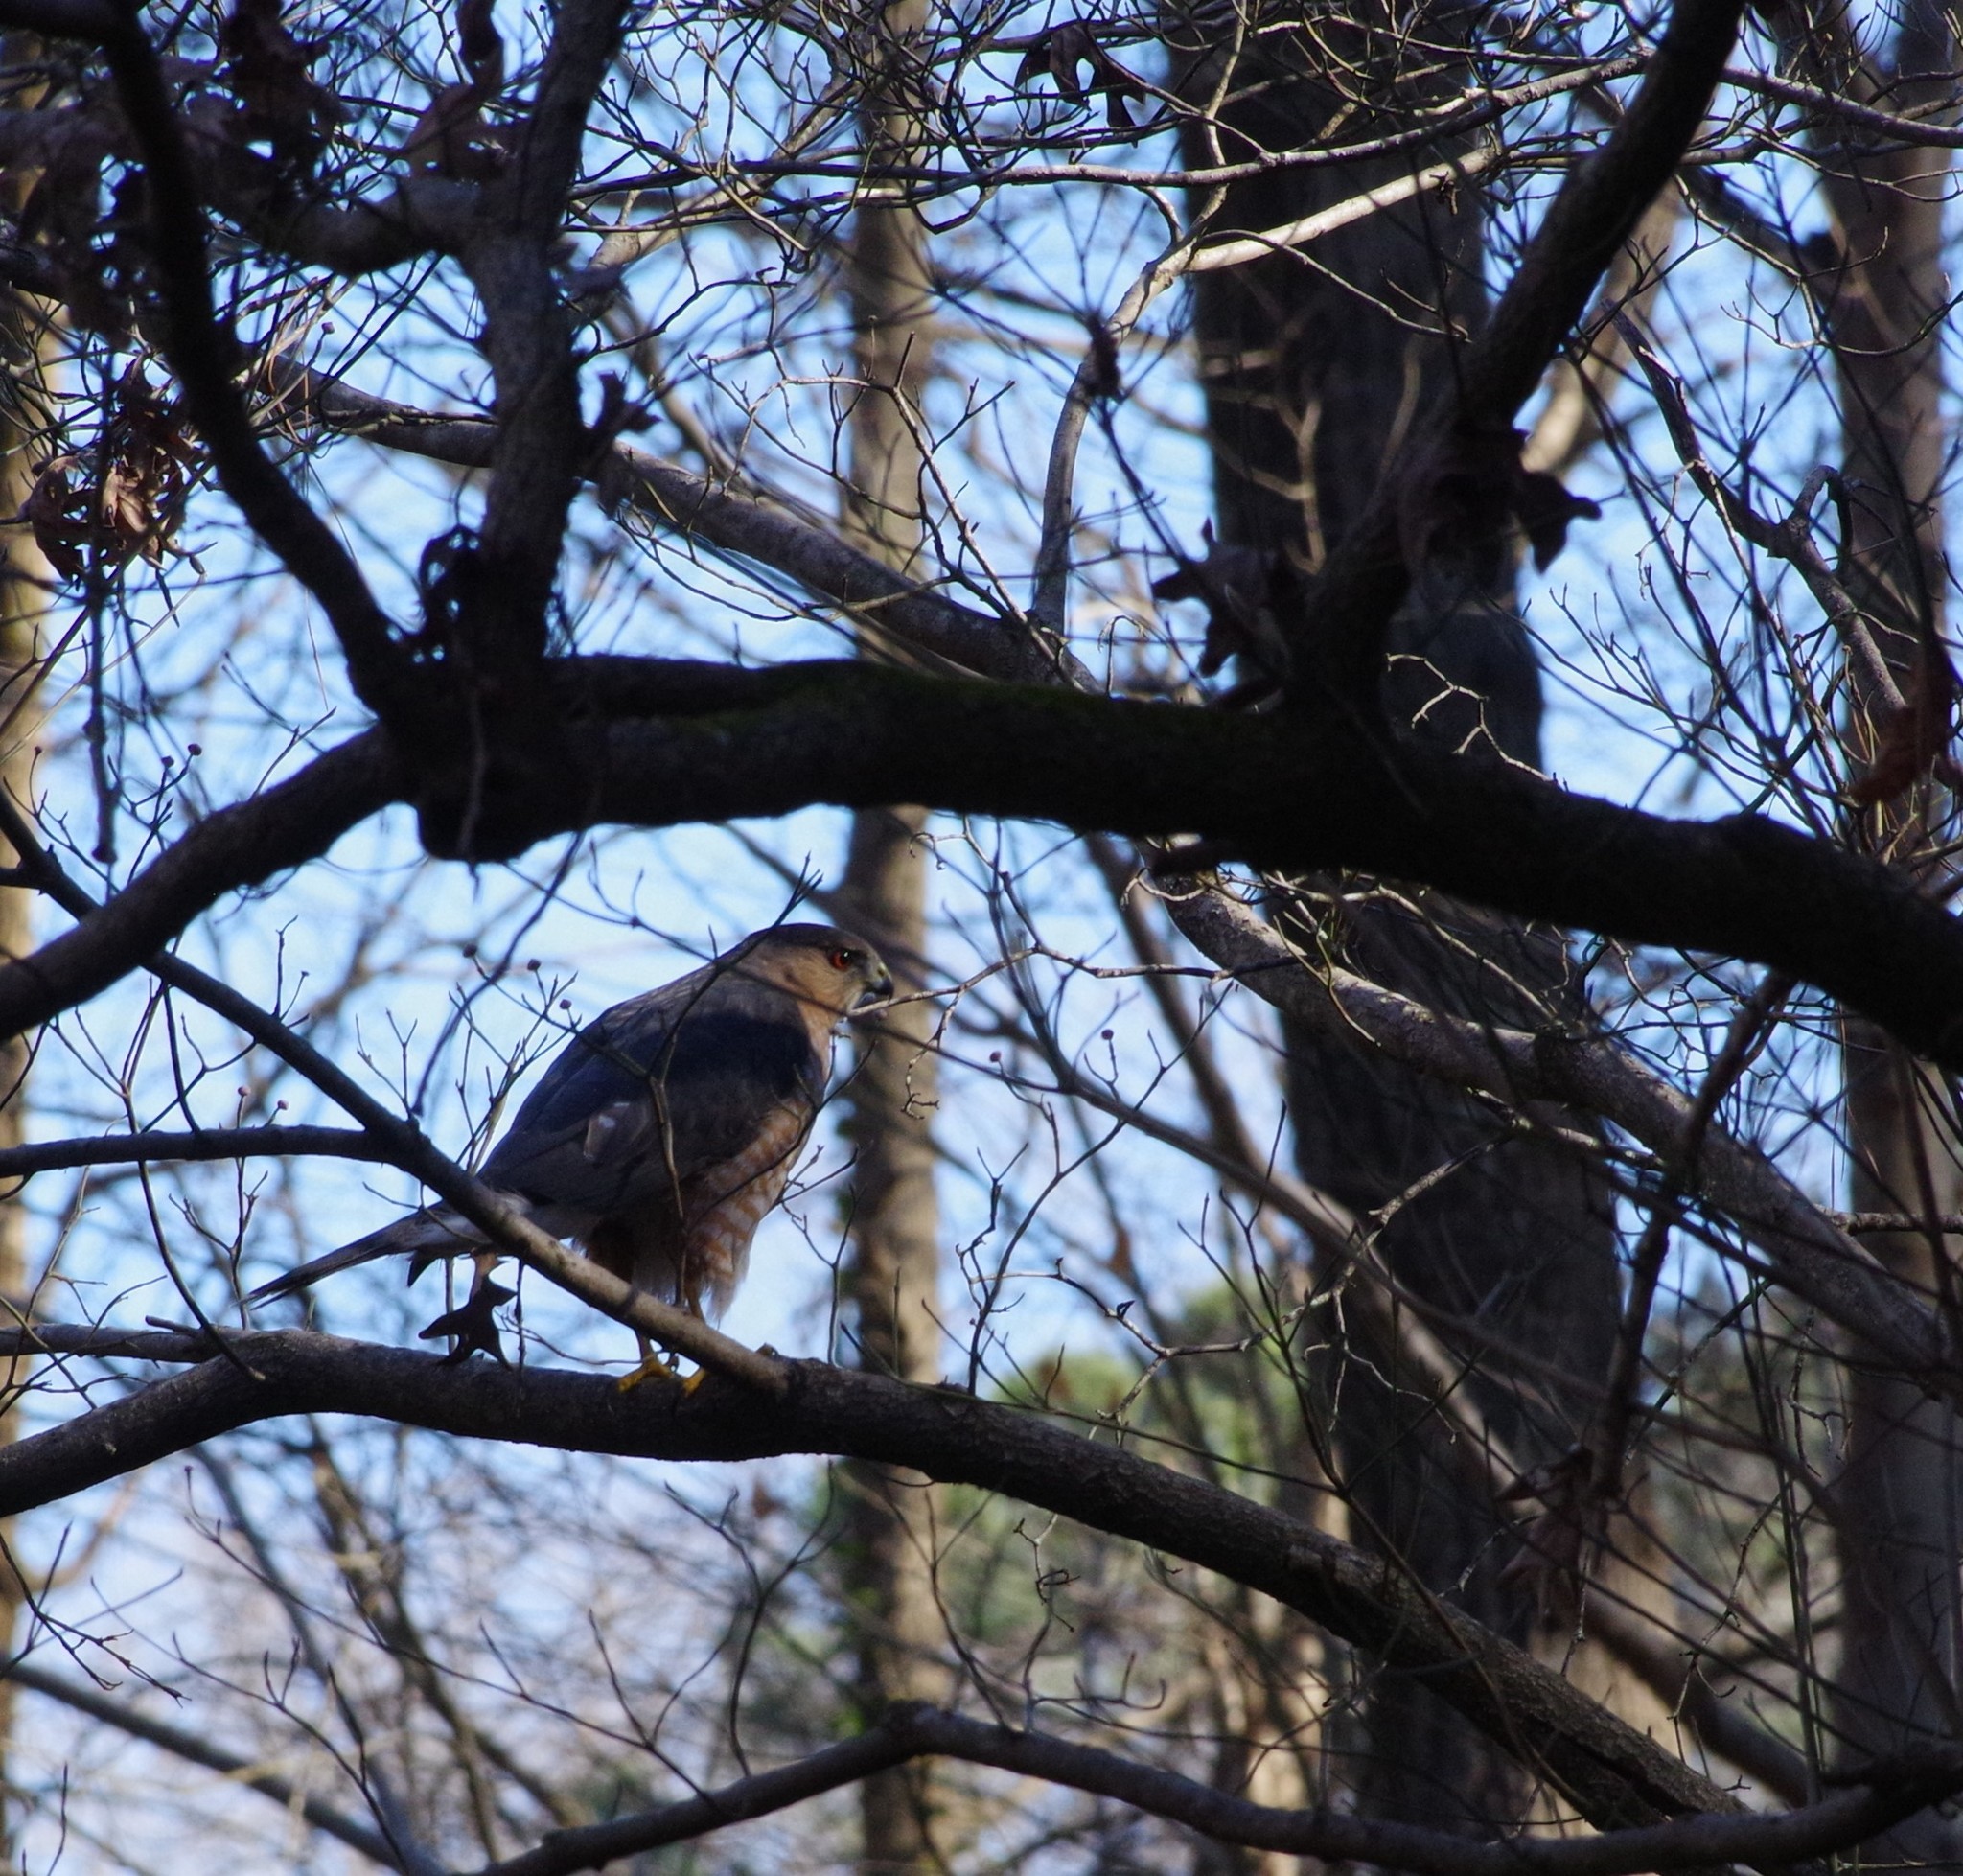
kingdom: Animalia
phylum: Chordata
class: Aves
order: Accipitriformes
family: Accipitridae
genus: Accipiter
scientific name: Accipiter cooperii
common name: Cooper's hawk
